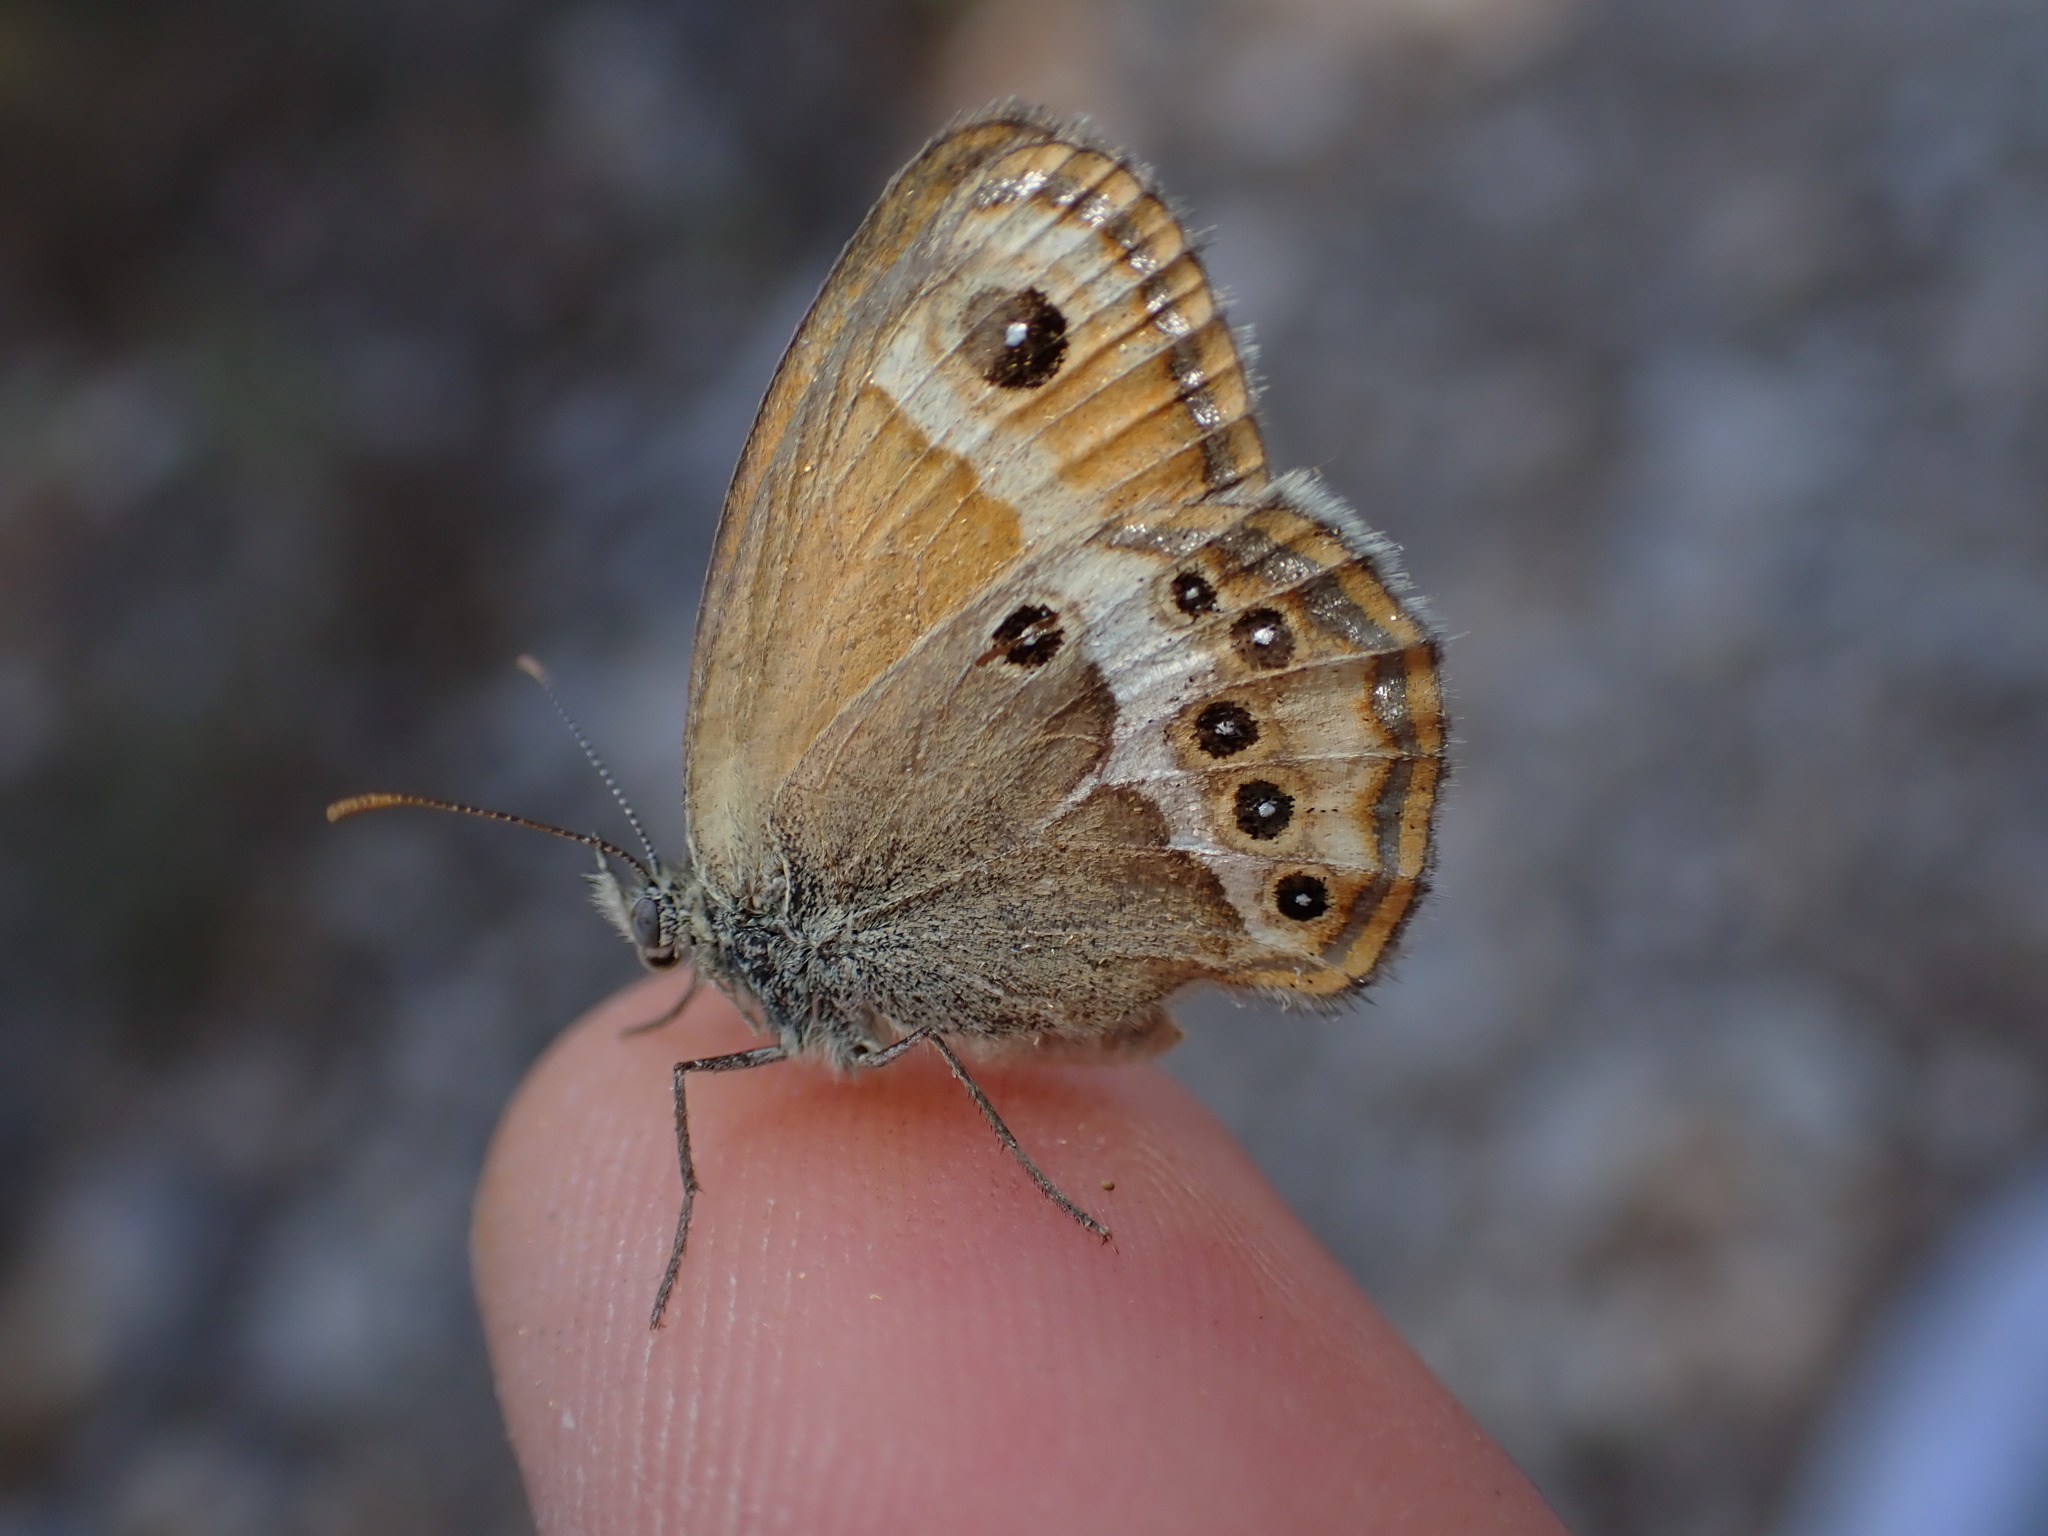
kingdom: Animalia
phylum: Arthropoda
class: Insecta
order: Lepidoptera
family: Nymphalidae
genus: Coenonympha
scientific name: Coenonympha dorus
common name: Dusky heath
